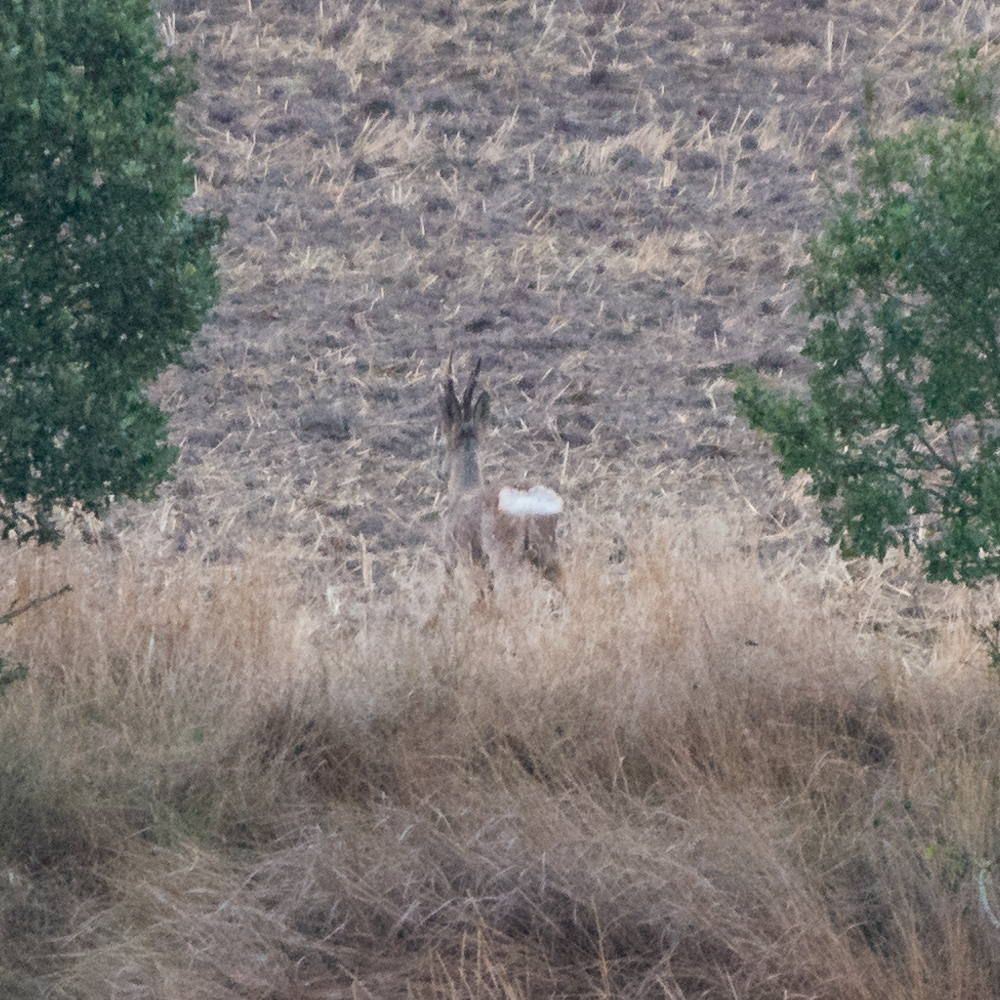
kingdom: Animalia
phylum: Chordata
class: Mammalia
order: Artiodactyla
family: Cervidae
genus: Capreolus
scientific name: Capreolus capreolus
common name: Western roe deer
